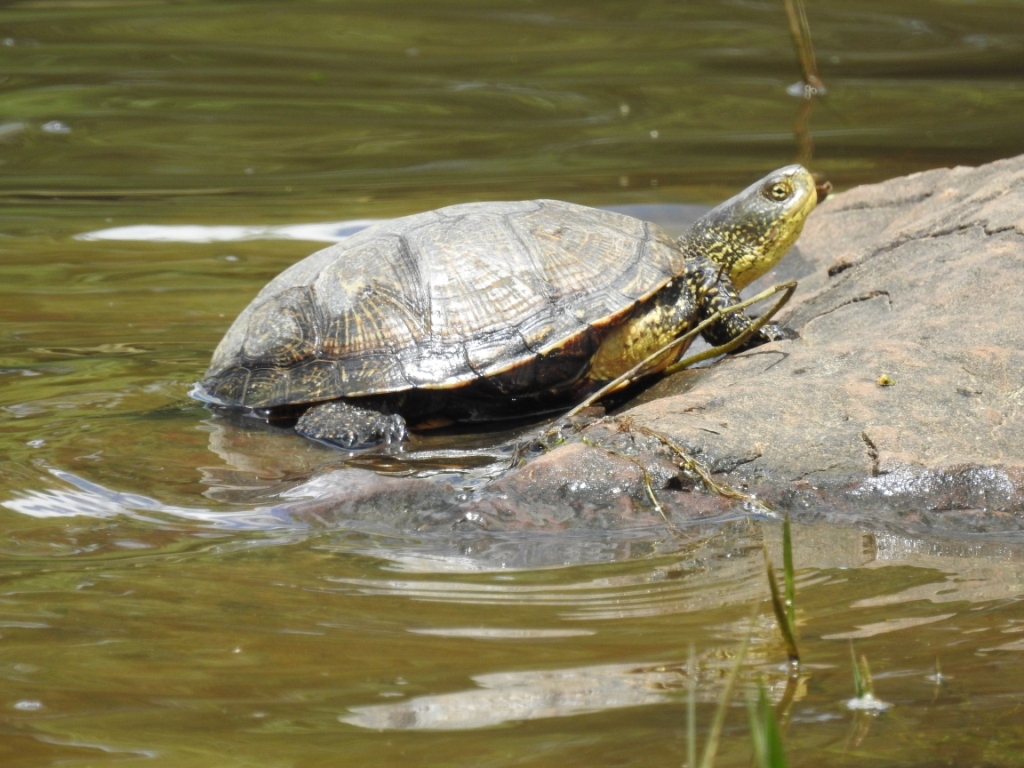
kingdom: Animalia
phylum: Chordata
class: Testudines
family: Emydidae
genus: Emys
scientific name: Emys orbicularis
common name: European pond turtle
